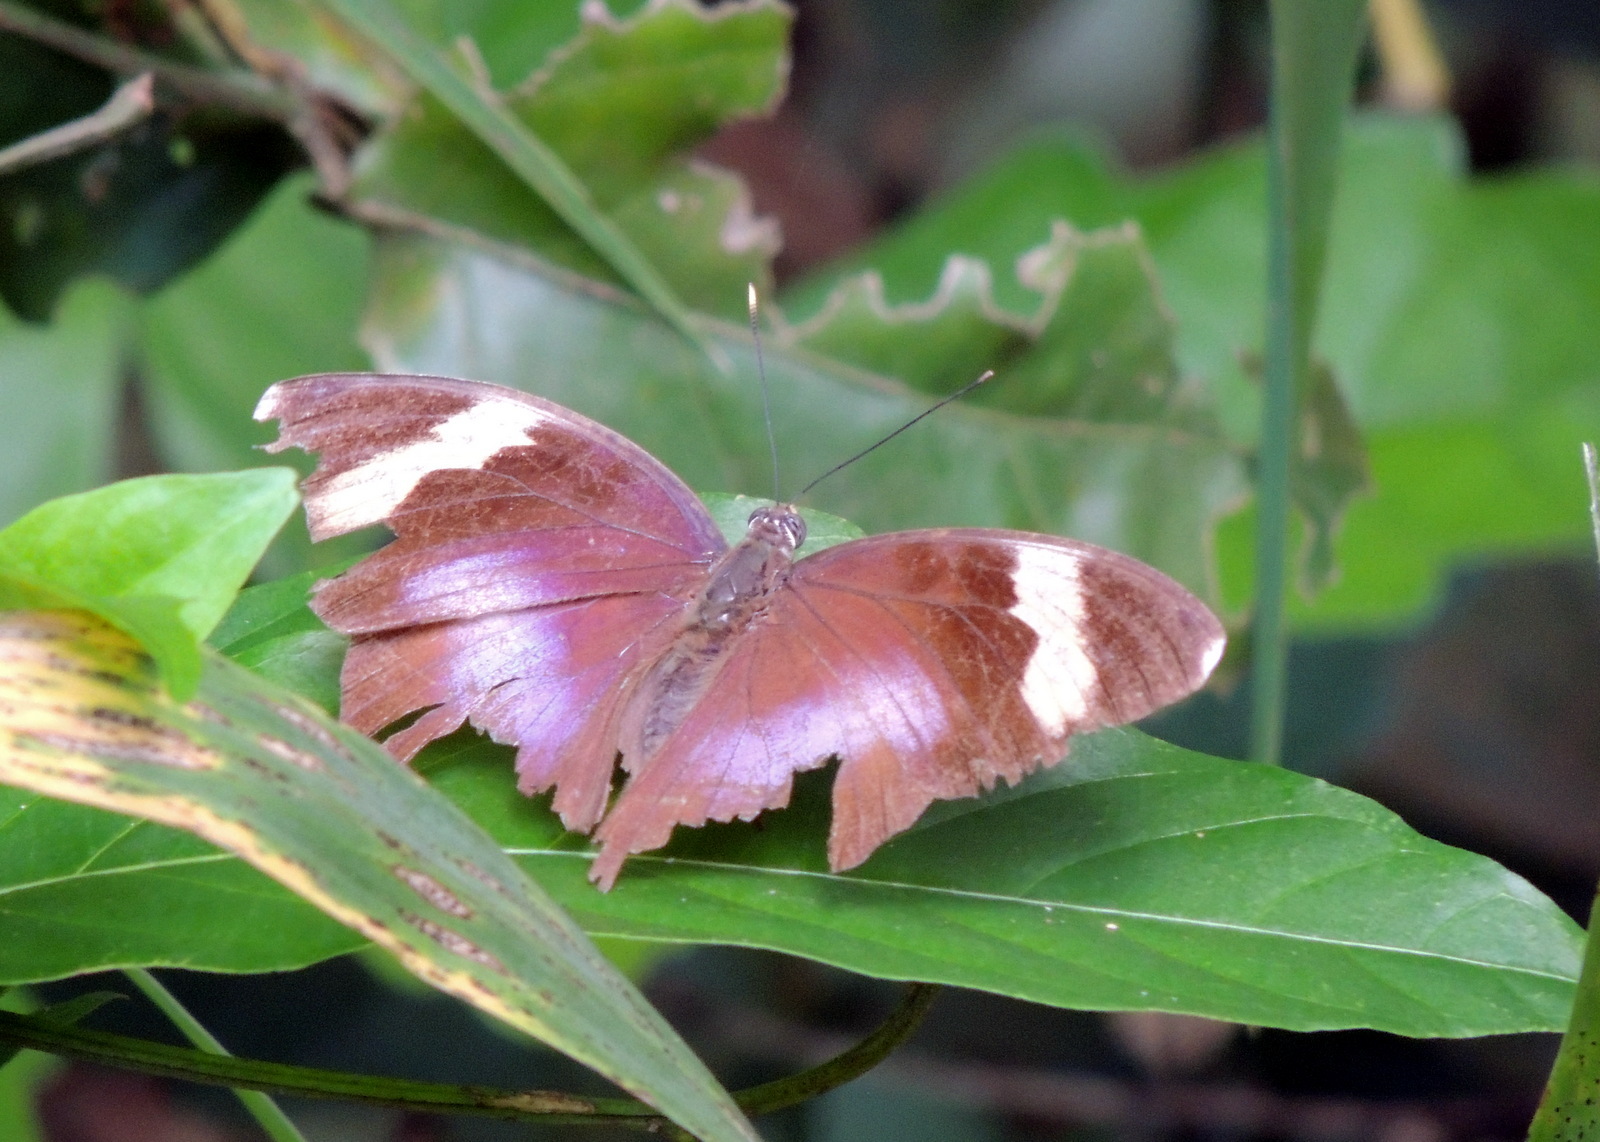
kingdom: Animalia
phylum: Arthropoda
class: Insecta
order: Lepidoptera
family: Nymphalidae
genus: Euphaedra
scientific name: Euphaedra medon
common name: Widespread forester
